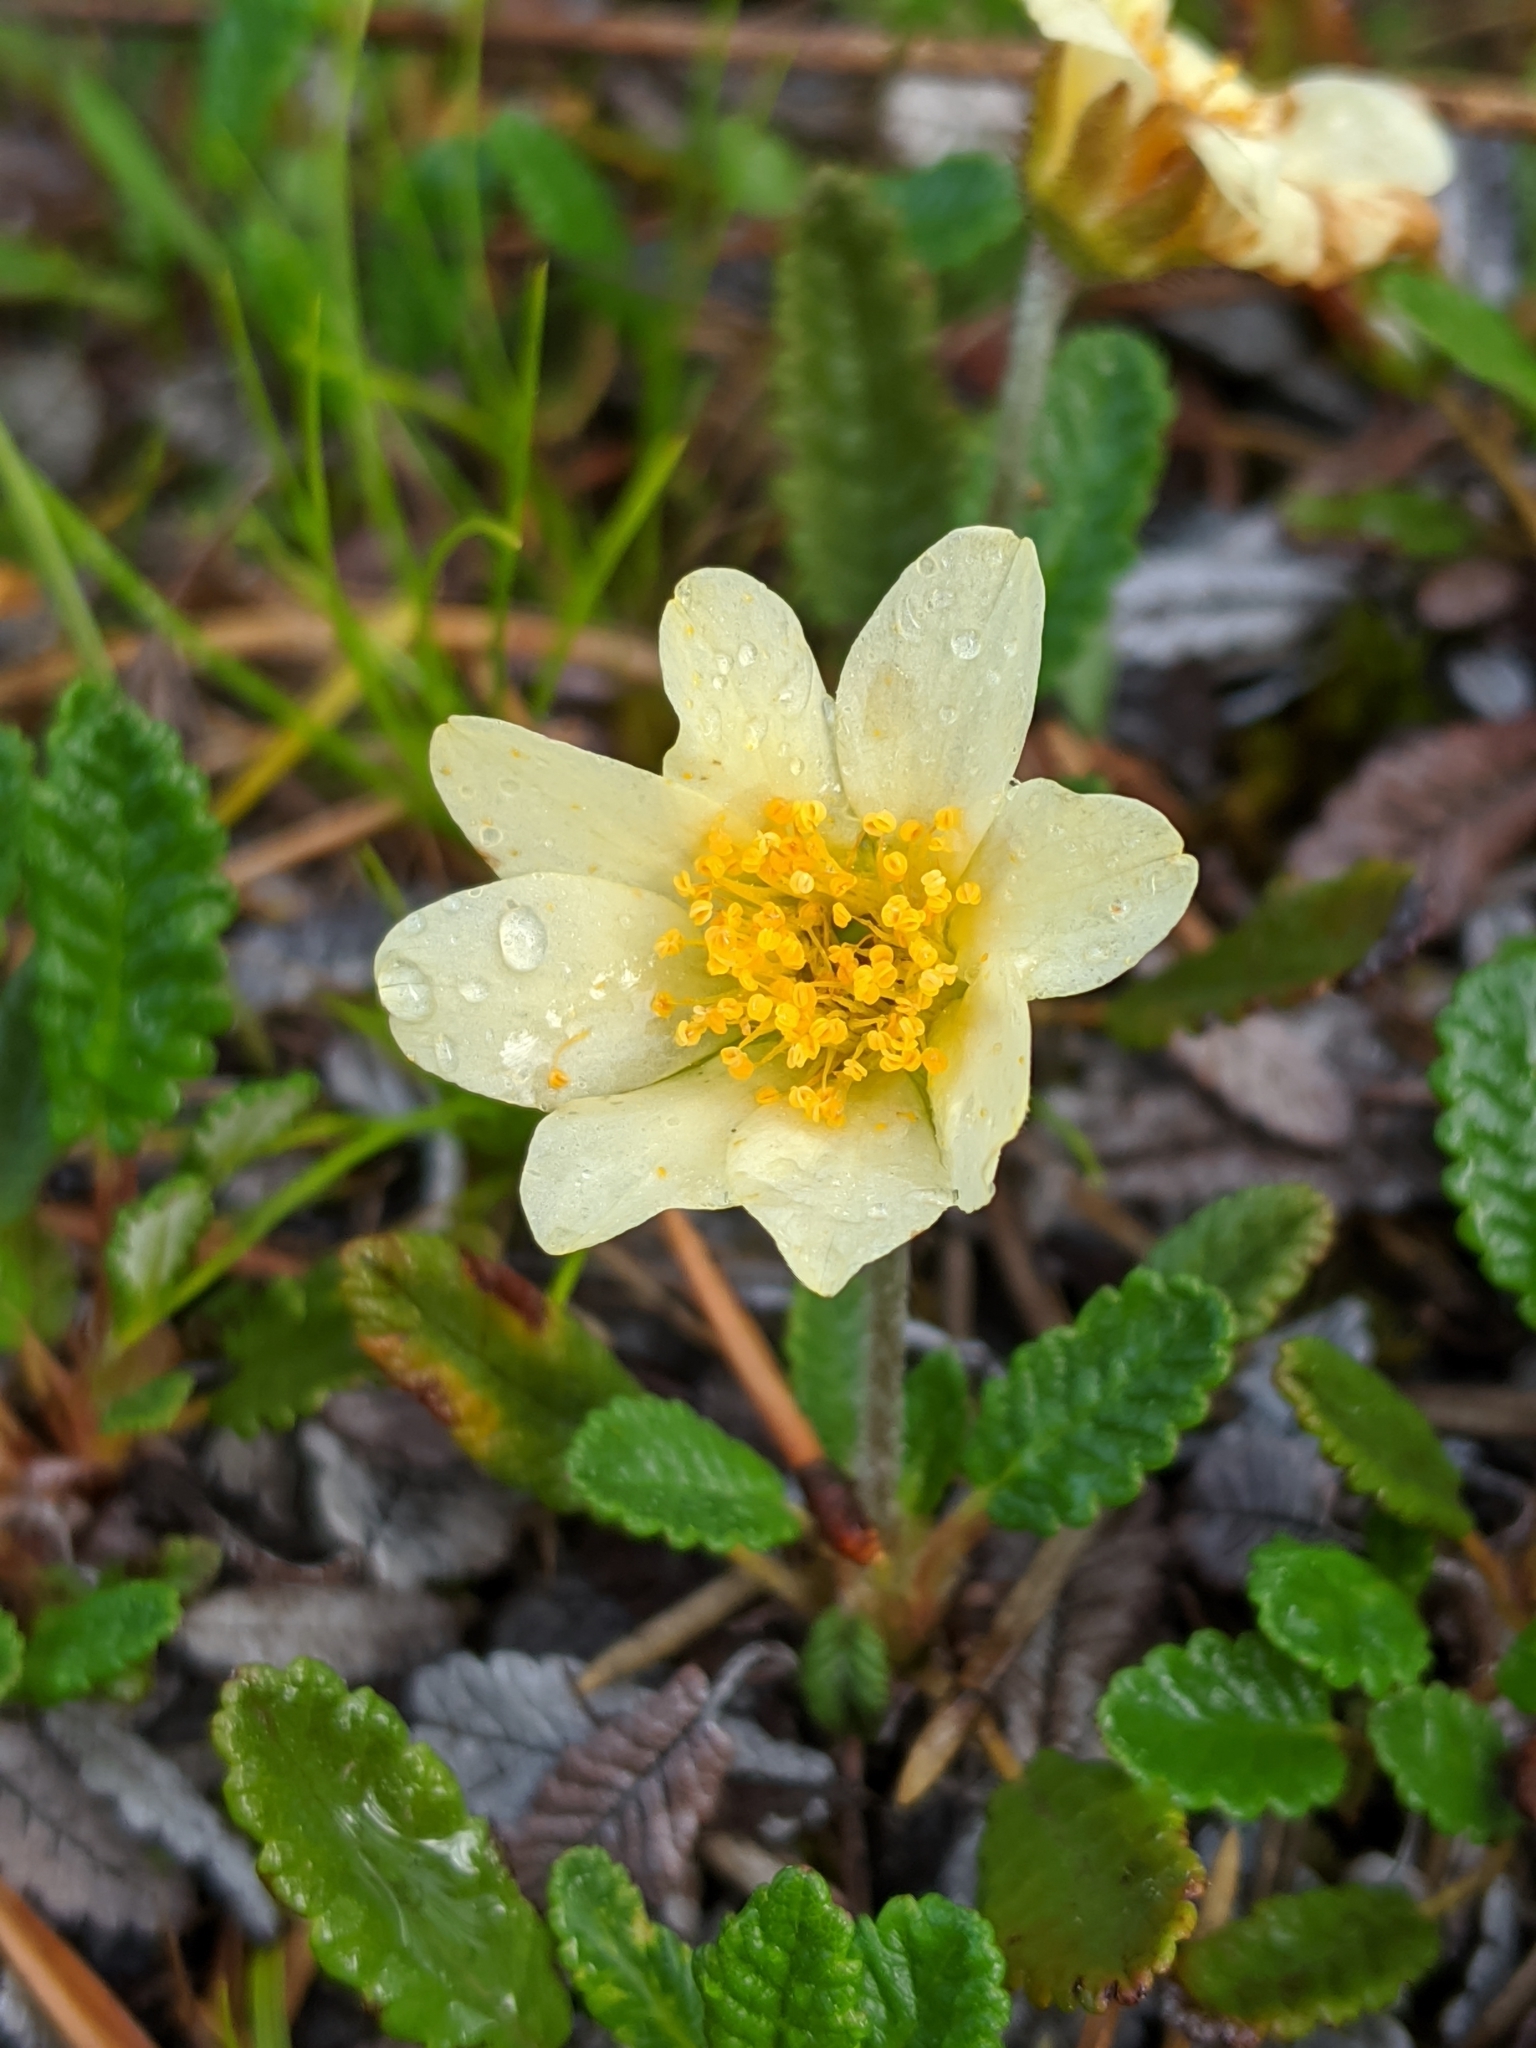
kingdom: Plantae
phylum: Tracheophyta
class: Magnoliopsida
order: Rosales
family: Rosaceae
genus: Dryas
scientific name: Dryas octopetala
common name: Eight-petal mountain-avens
